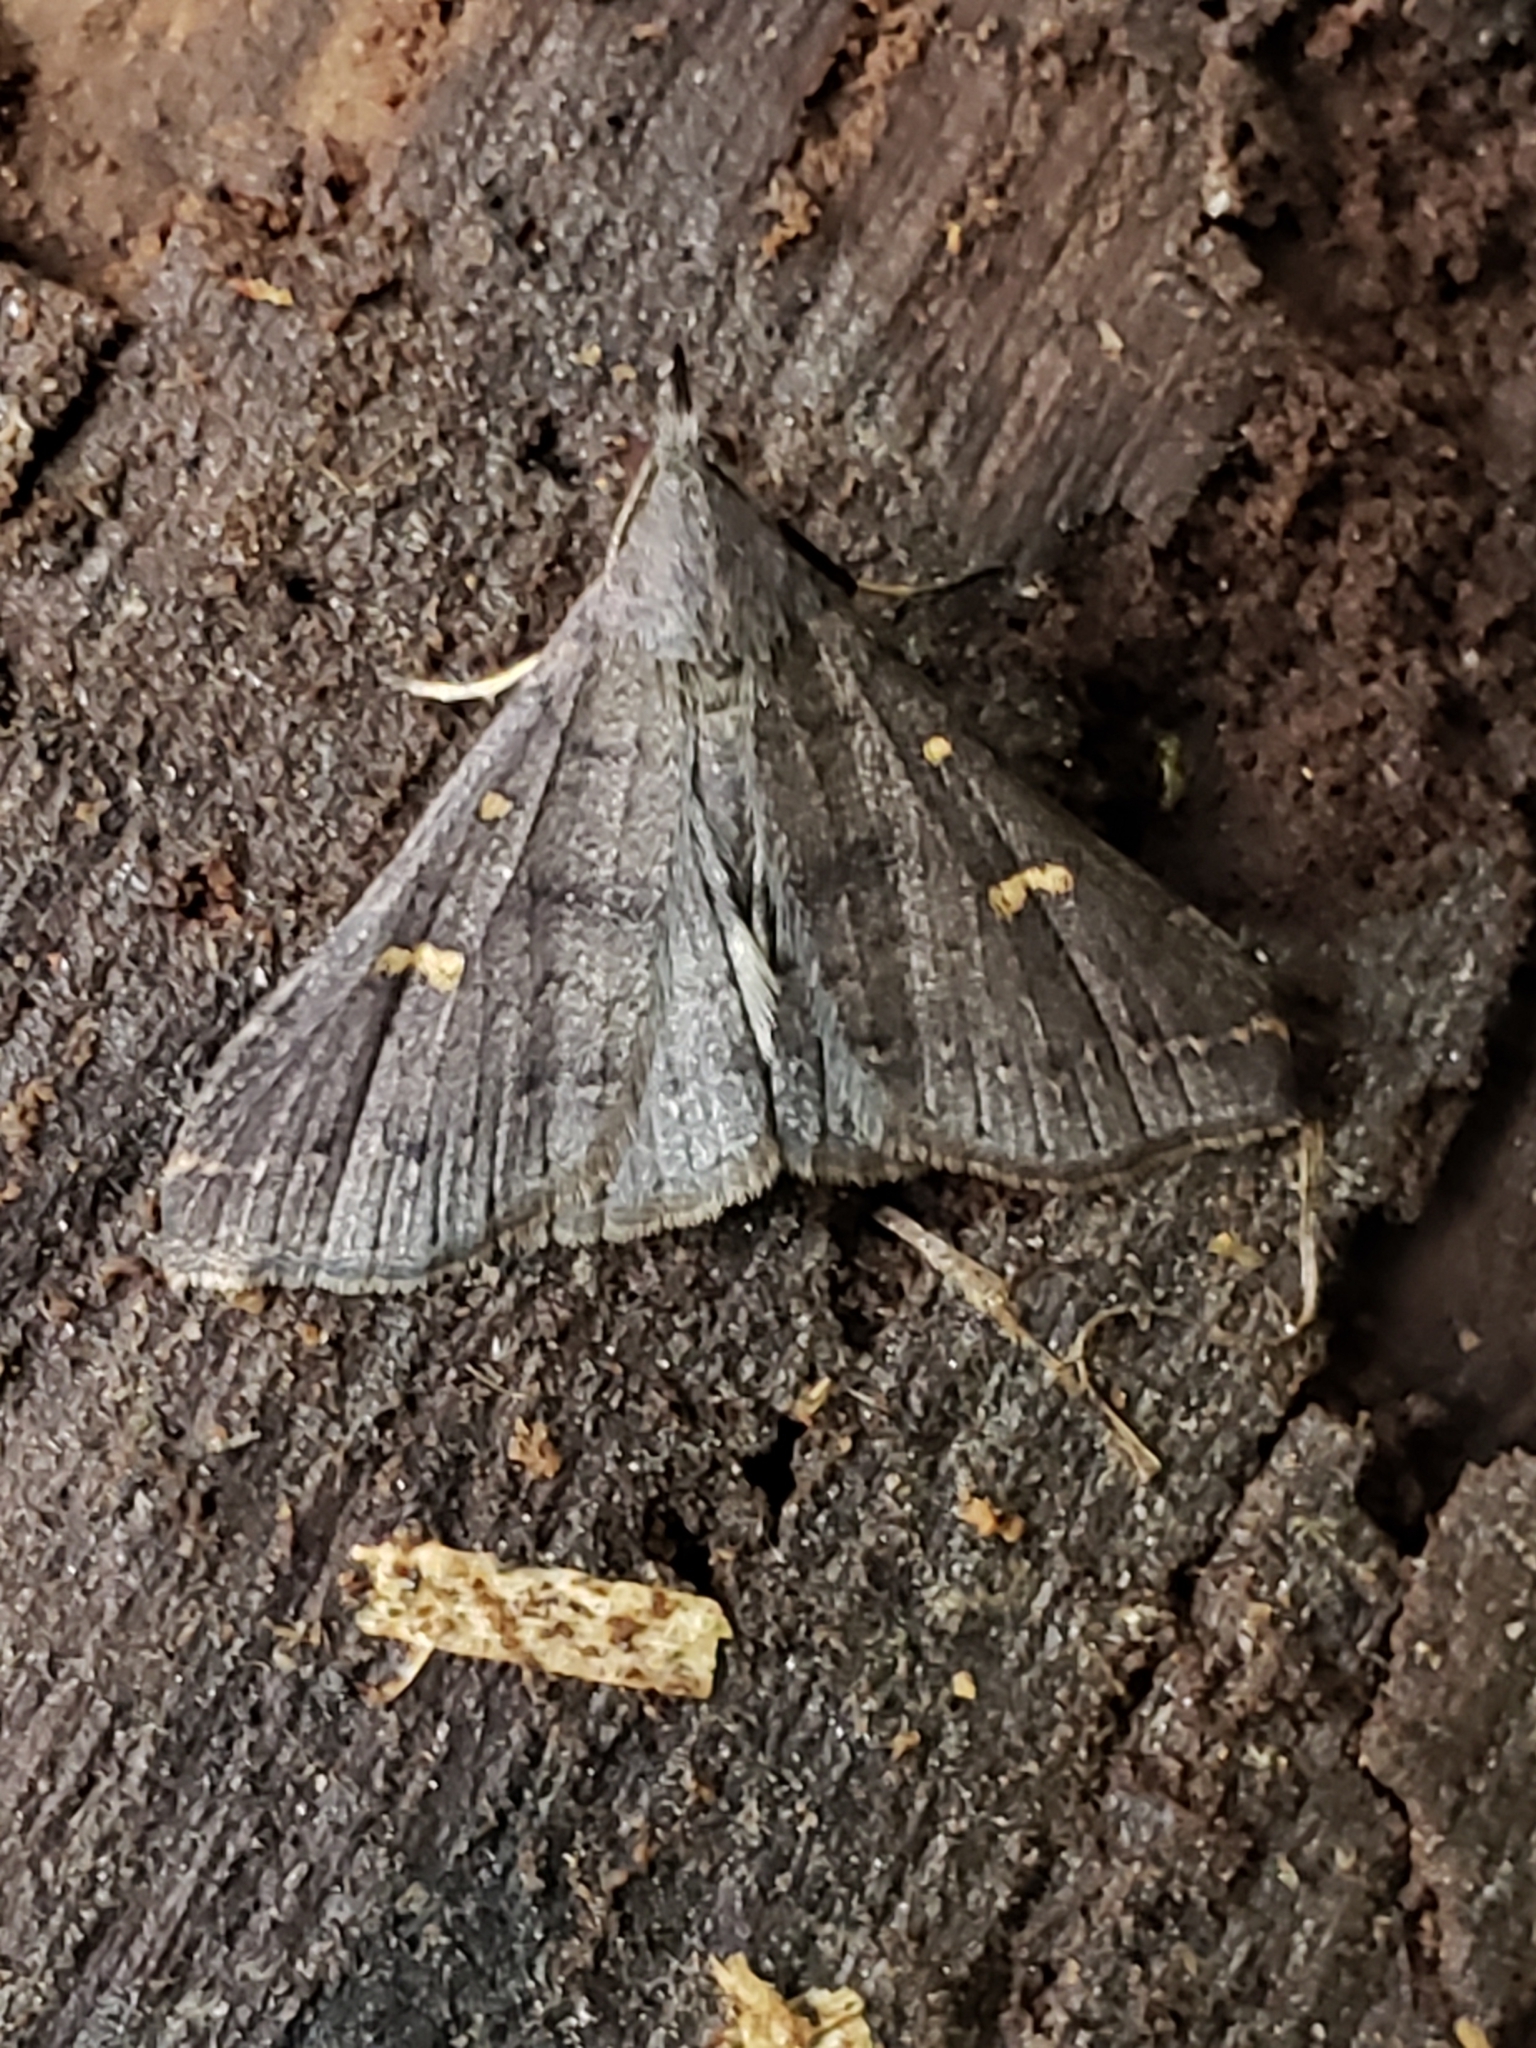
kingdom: Animalia
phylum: Arthropoda
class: Insecta
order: Lepidoptera
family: Erebidae
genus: Renia
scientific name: Renia adspergillus
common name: Speckled renia moth
